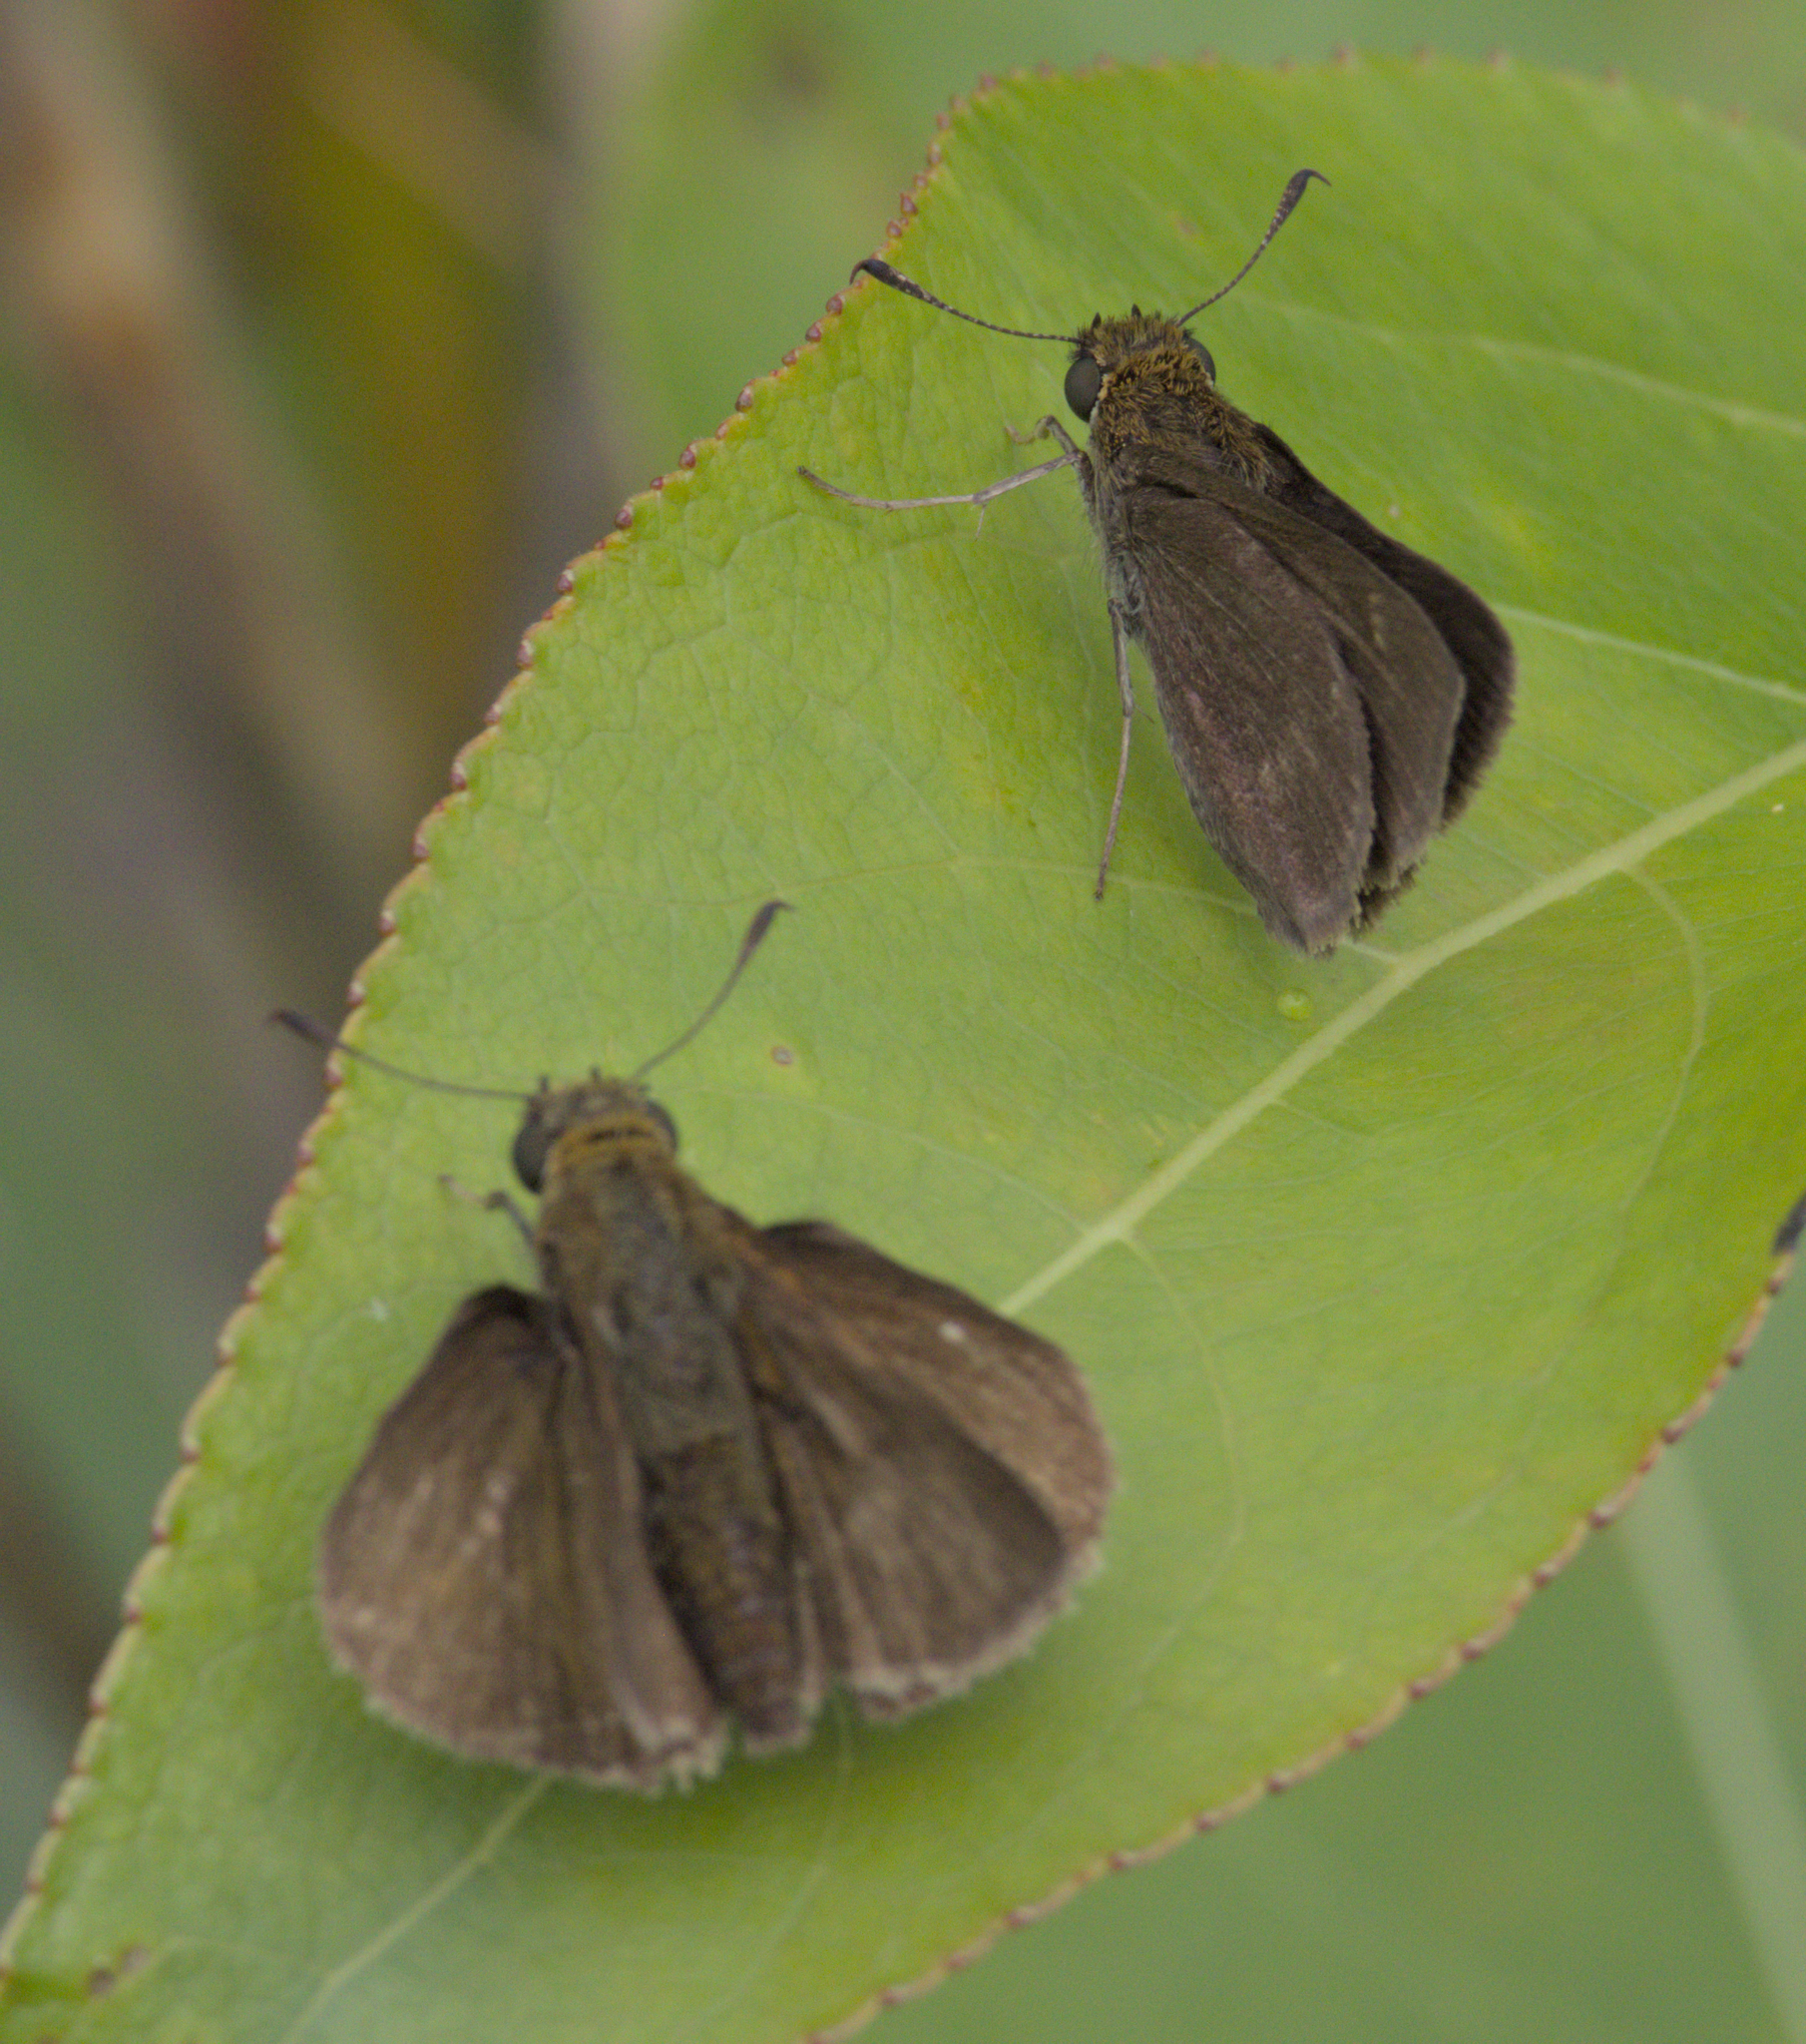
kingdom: Animalia
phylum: Arthropoda
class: Insecta
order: Lepidoptera
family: Hesperiidae
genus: Euphyes
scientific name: Euphyes vestris
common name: Dun skipper
